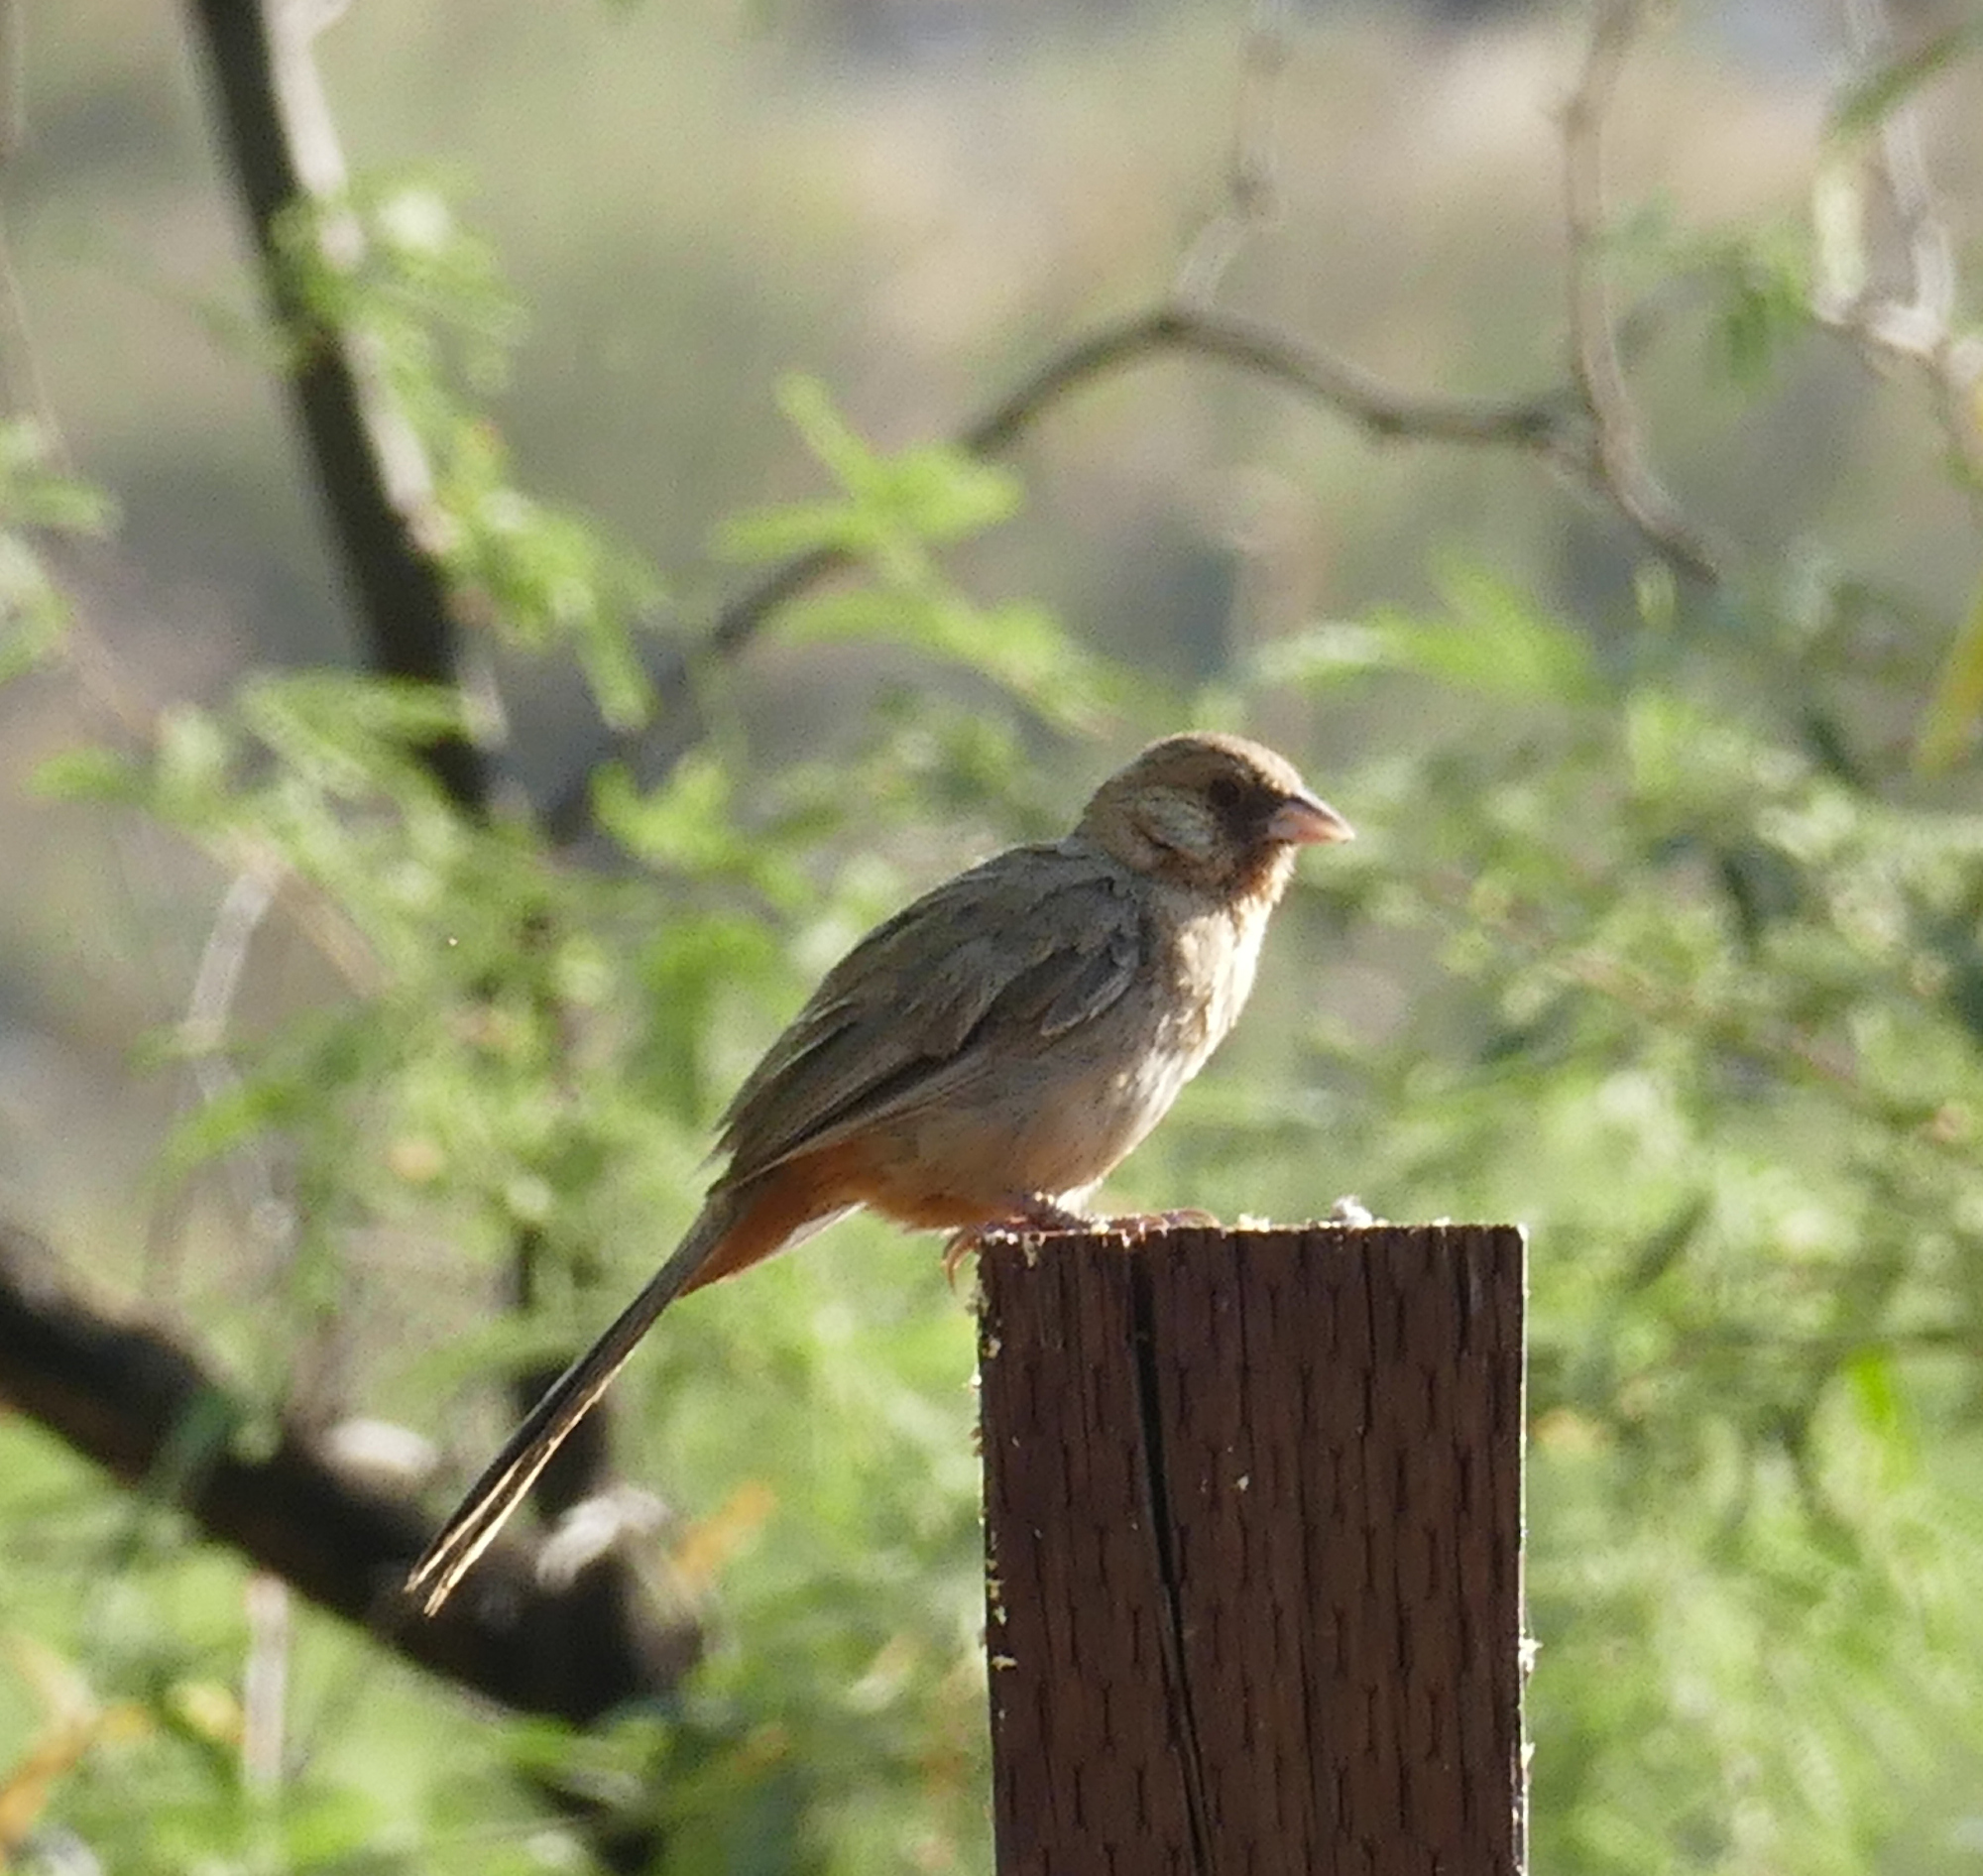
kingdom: Animalia
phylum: Chordata
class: Aves
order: Passeriformes
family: Passerellidae
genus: Melozone
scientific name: Melozone aberti
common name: Abert's towhee
